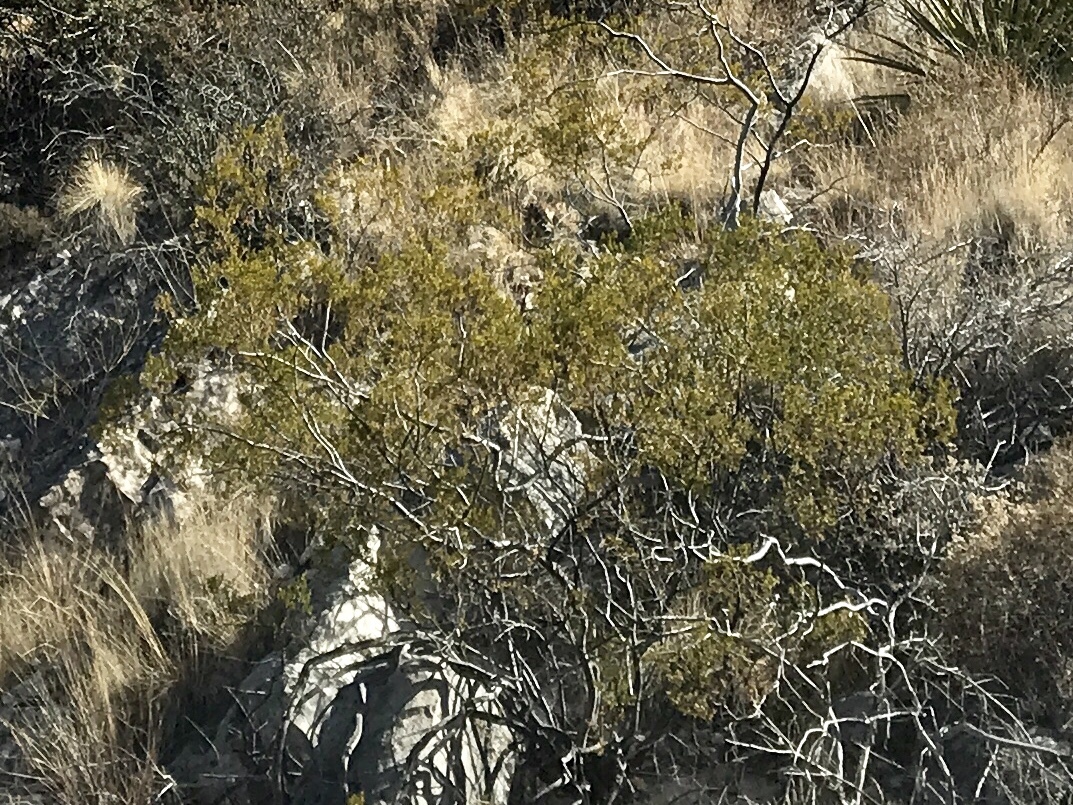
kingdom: Plantae
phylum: Tracheophyta
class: Magnoliopsida
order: Zygophyllales
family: Zygophyllaceae
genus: Larrea
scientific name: Larrea tridentata
